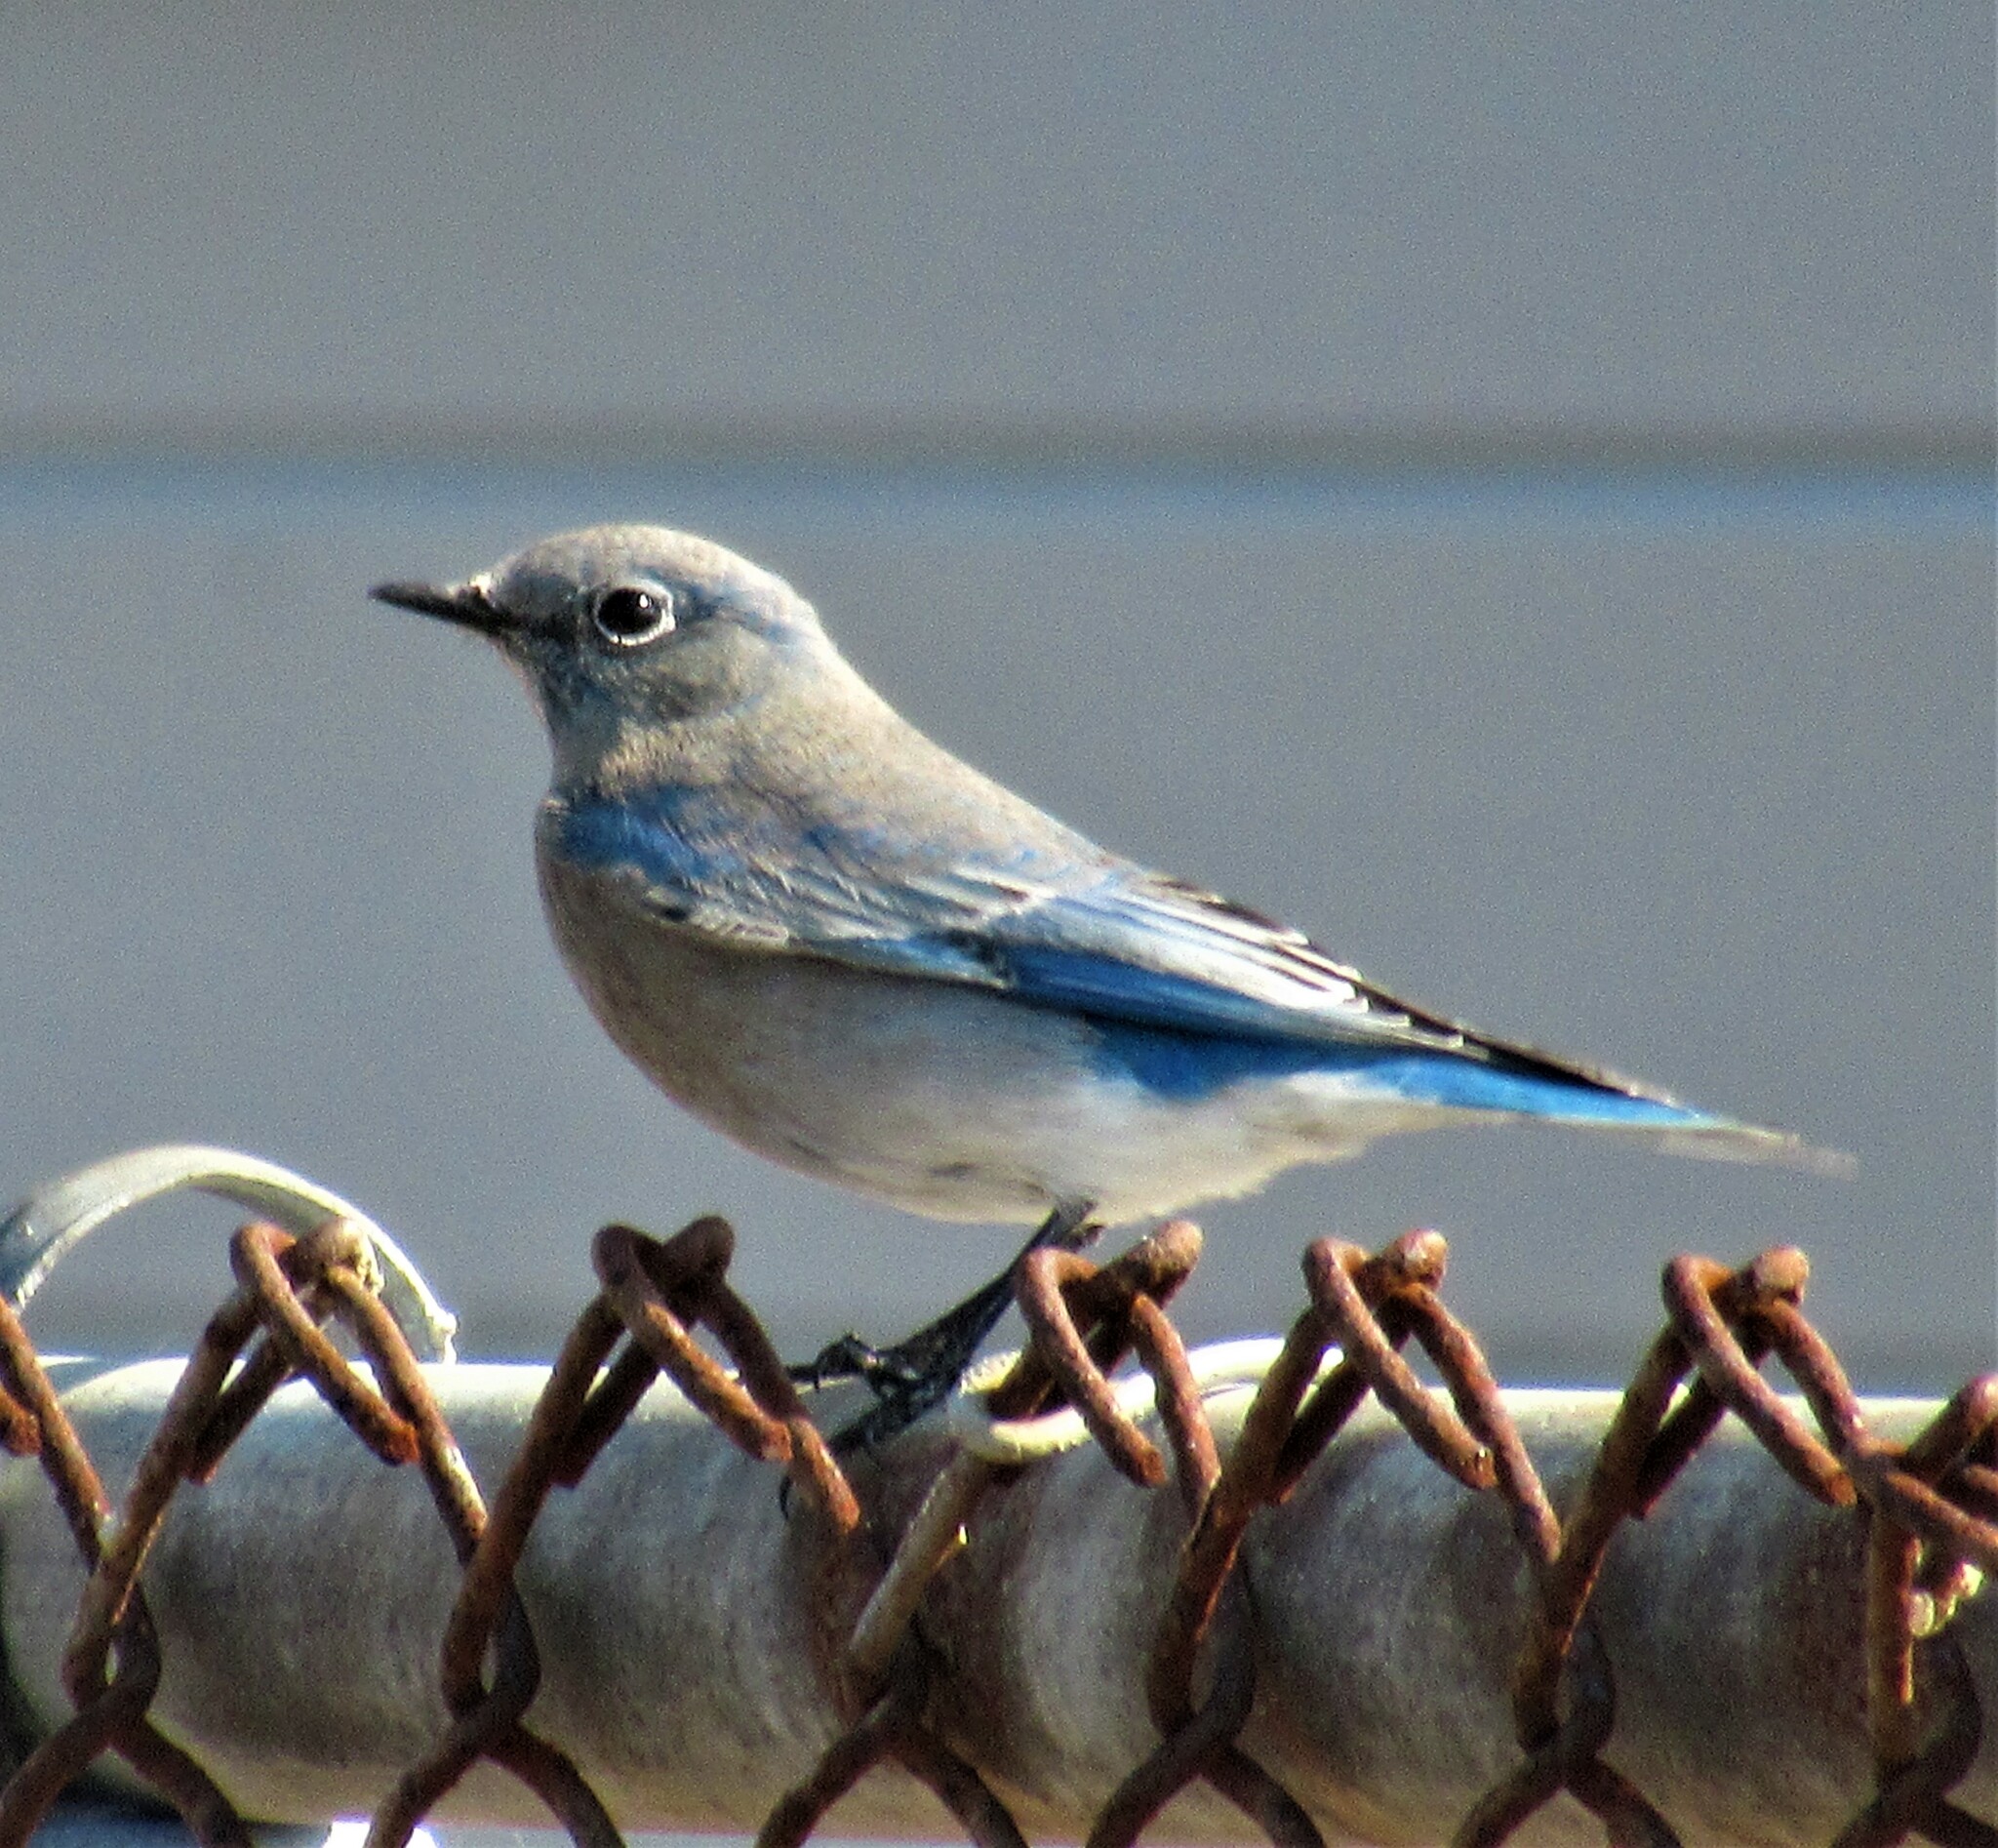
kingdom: Animalia
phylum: Chordata
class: Aves
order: Passeriformes
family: Turdidae
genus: Sialia
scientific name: Sialia currucoides
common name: Mountain bluebird
